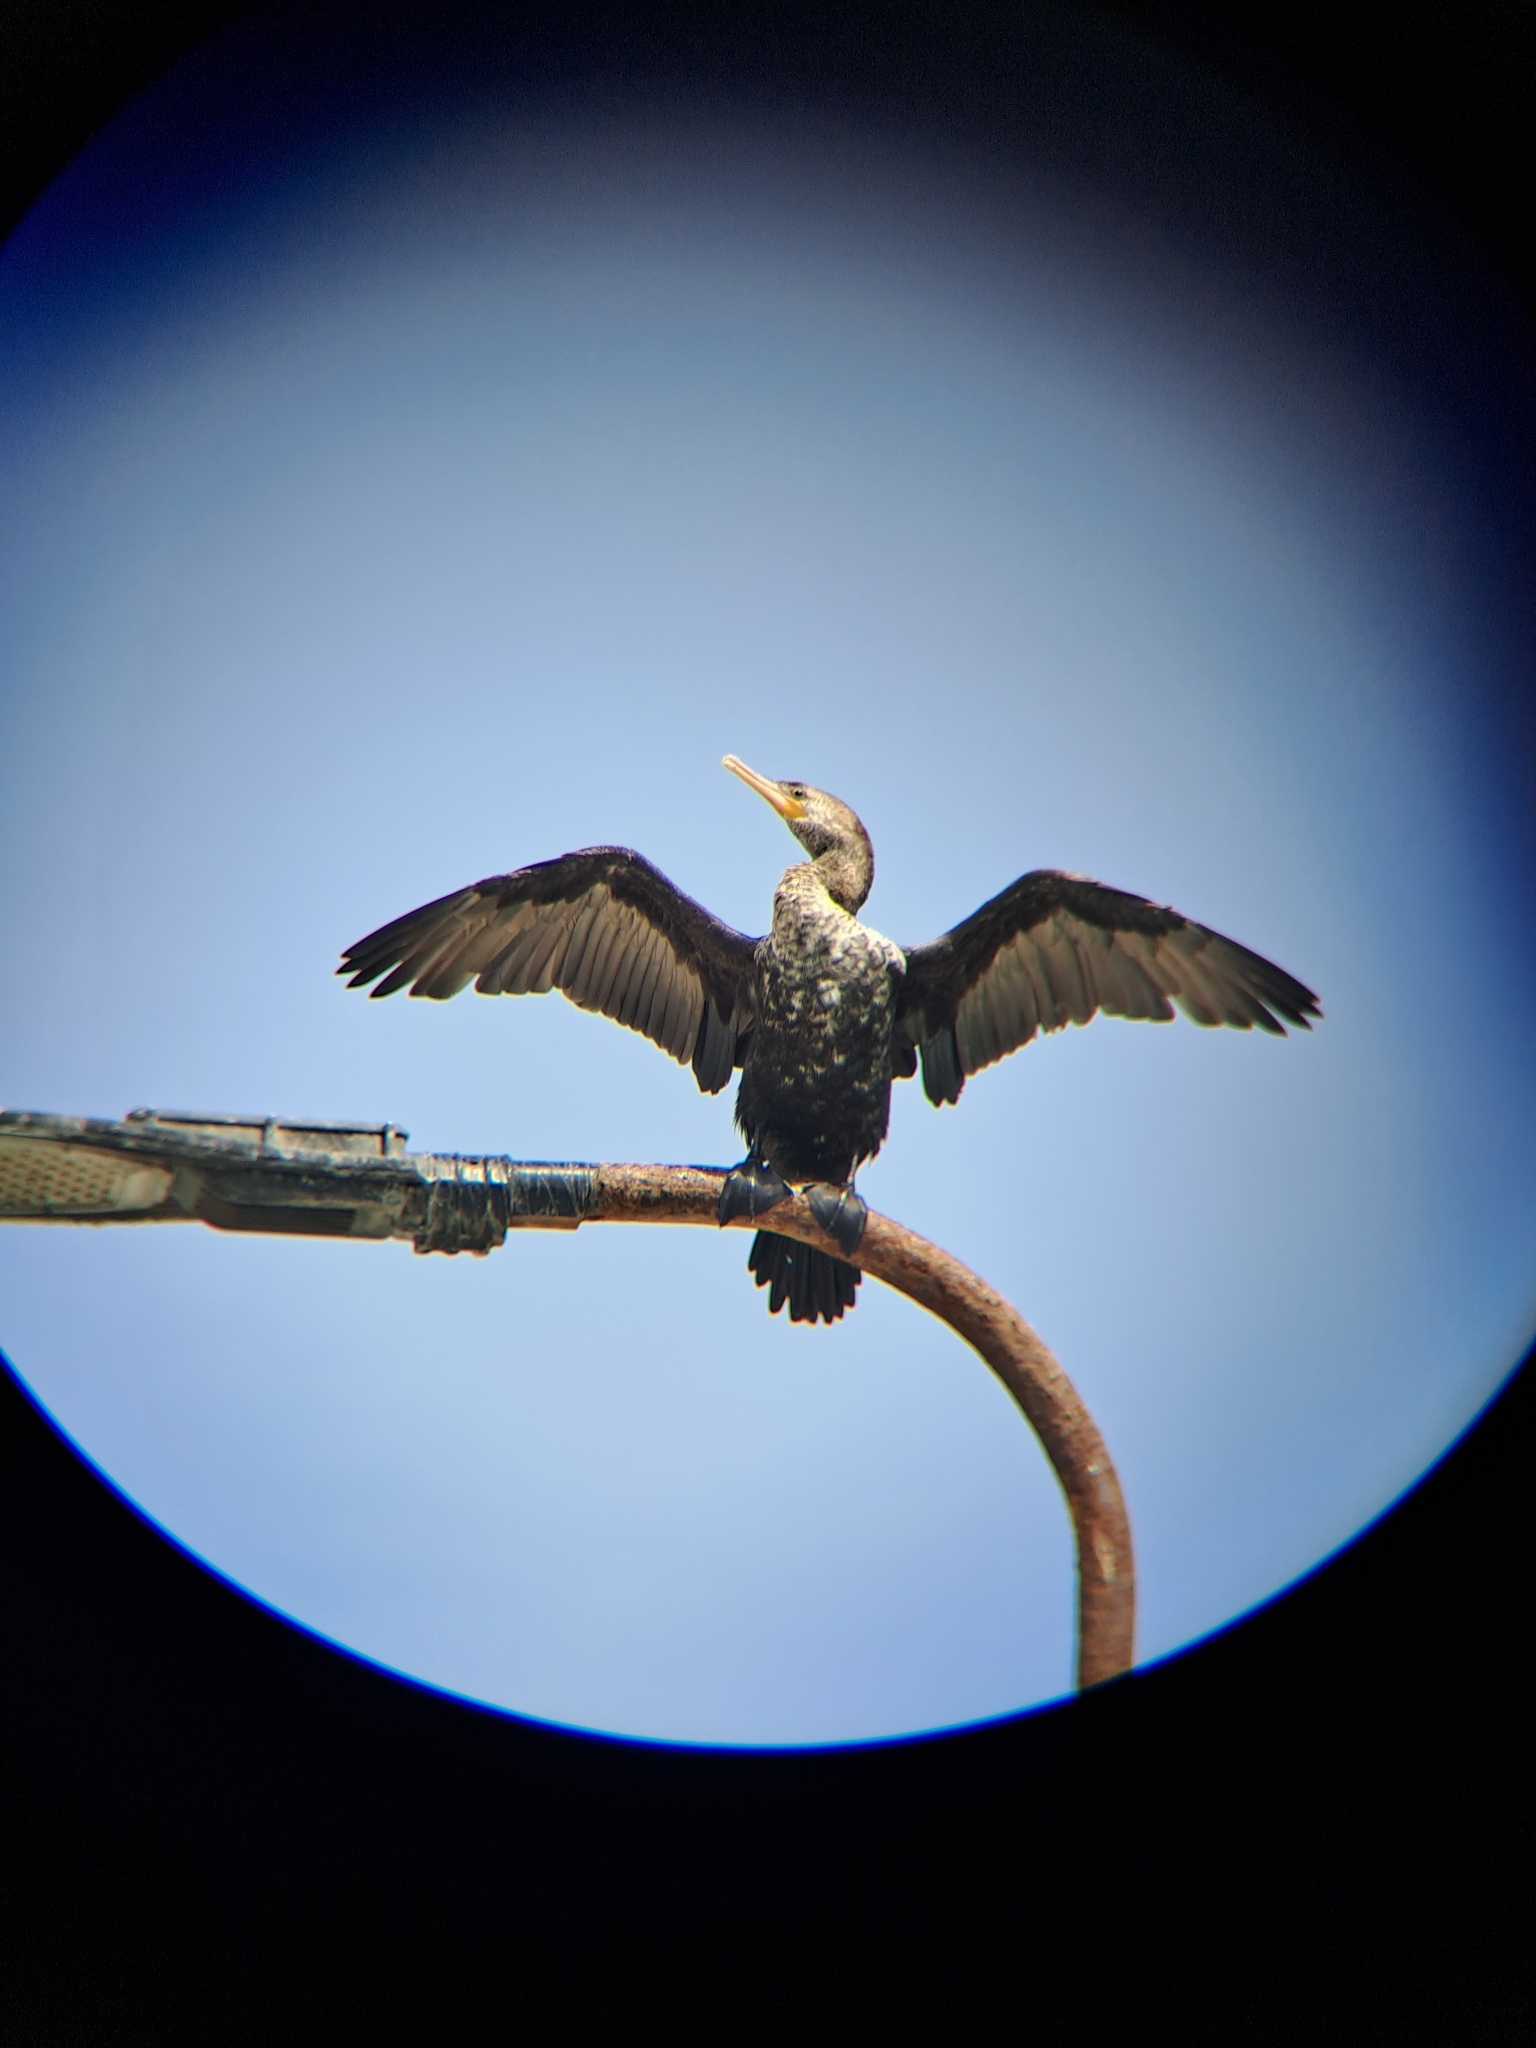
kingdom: Animalia
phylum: Chordata
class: Aves
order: Suliformes
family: Phalacrocoracidae
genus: Phalacrocorax
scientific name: Phalacrocorax brasilianus
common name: Neotropic cormorant
